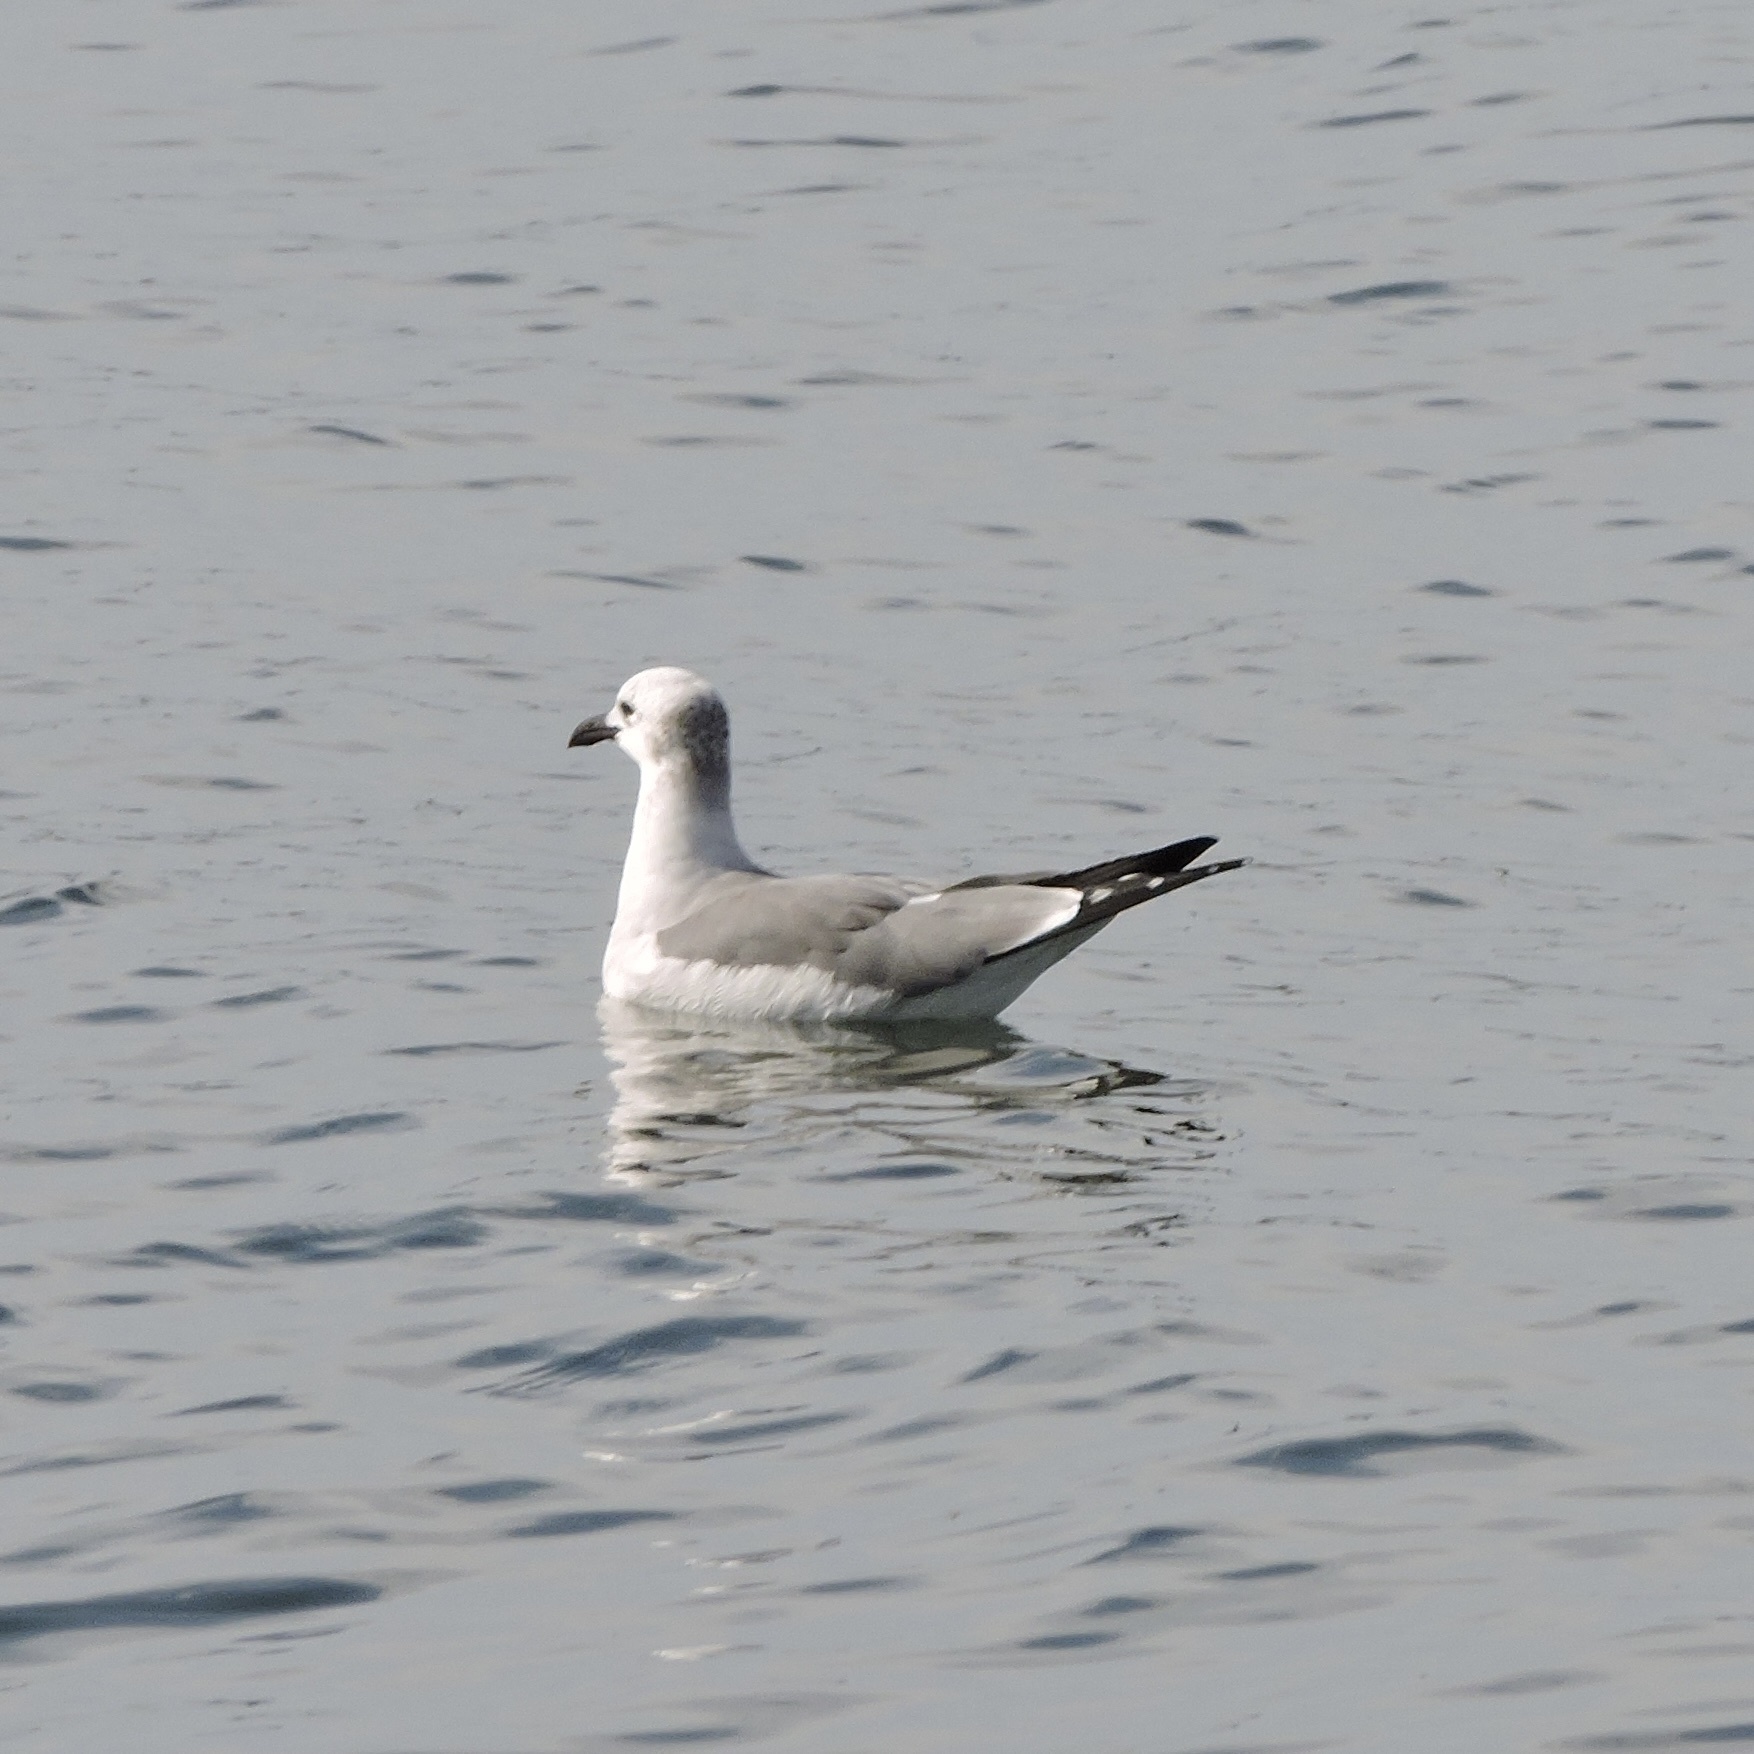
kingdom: Animalia
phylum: Chordata
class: Aves
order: Charadriiformes
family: Laridae
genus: Leucophaeus
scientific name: Leucophaeus atricilla
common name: Laughing gull
